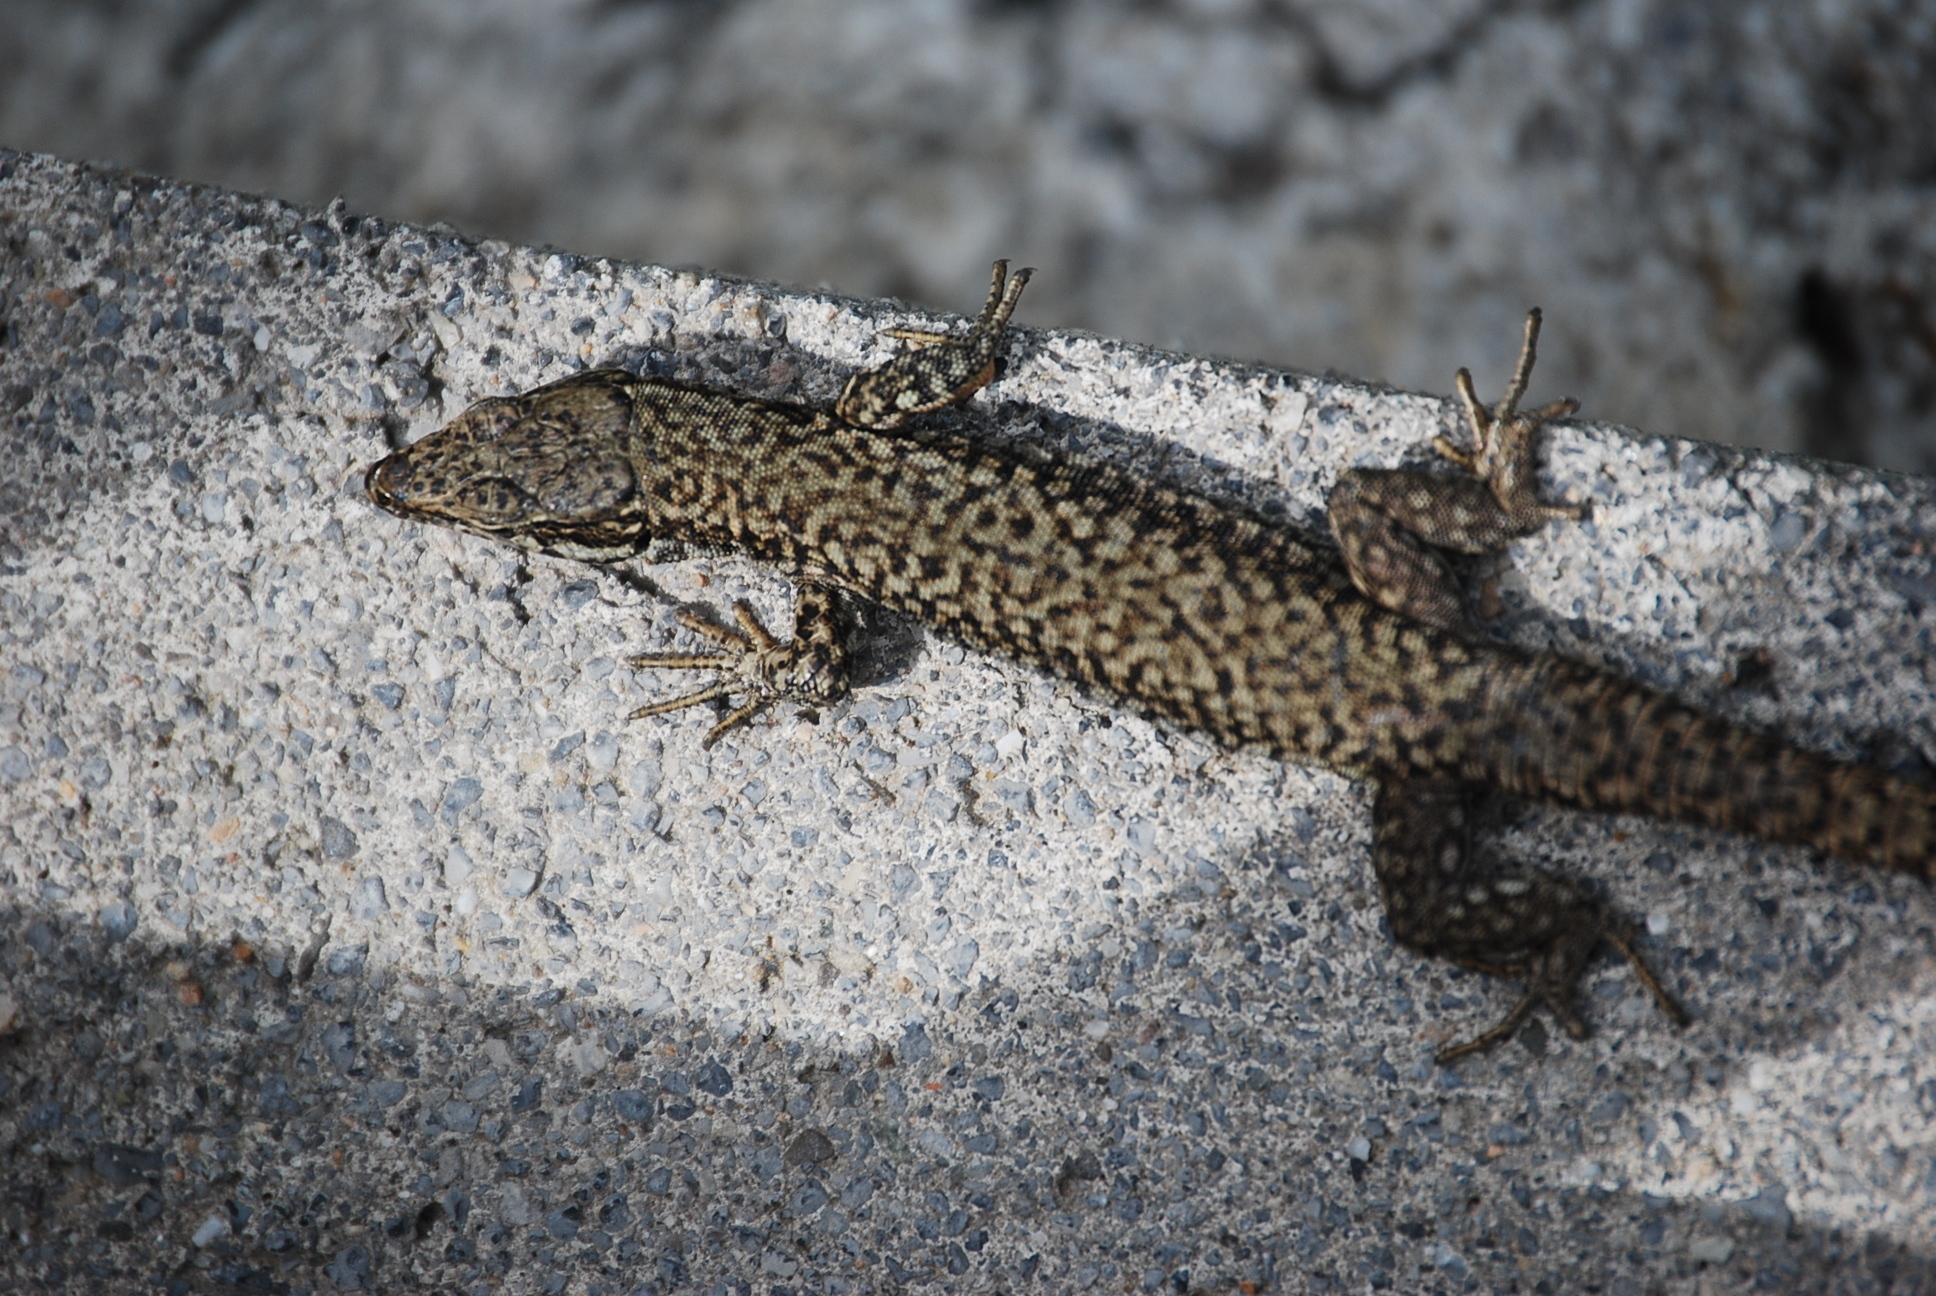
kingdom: Animalia
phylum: Chordata
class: Squamata
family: Lacertidae
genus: Podarcis
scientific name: Podarcis muralis
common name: Common wall lizard
